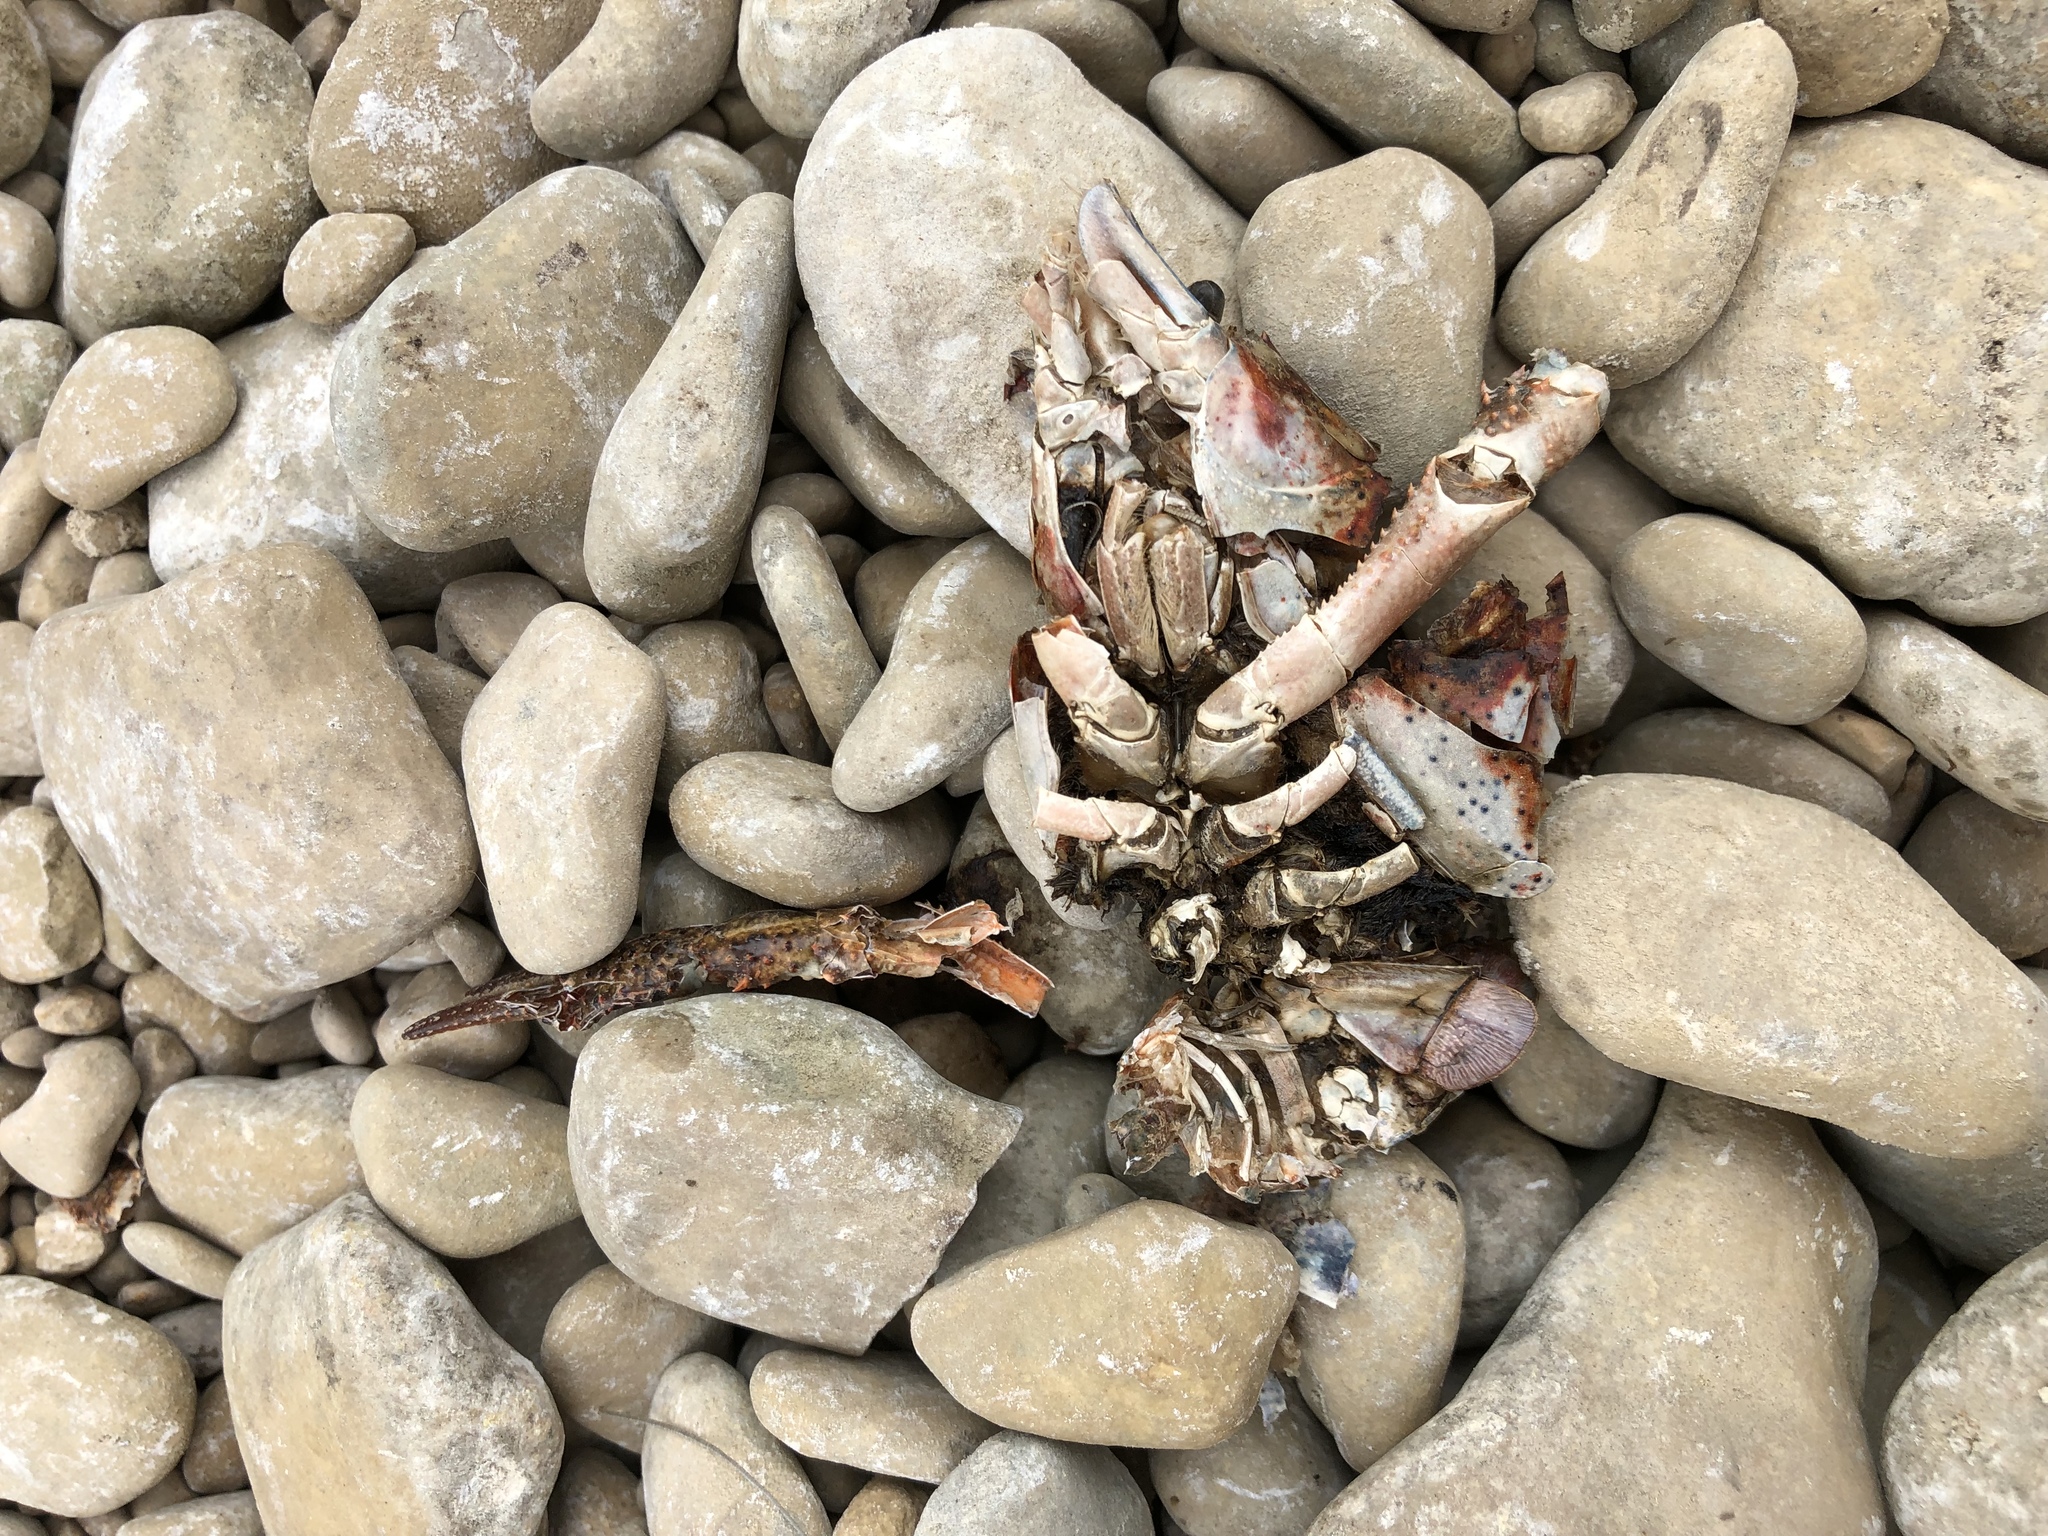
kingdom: Animalia
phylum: Arthropoda
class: Malacostraca
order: Decapoda
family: Cambaridae
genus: Procambarus
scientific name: Procambarus clarkii
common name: Red swamp crayfish
